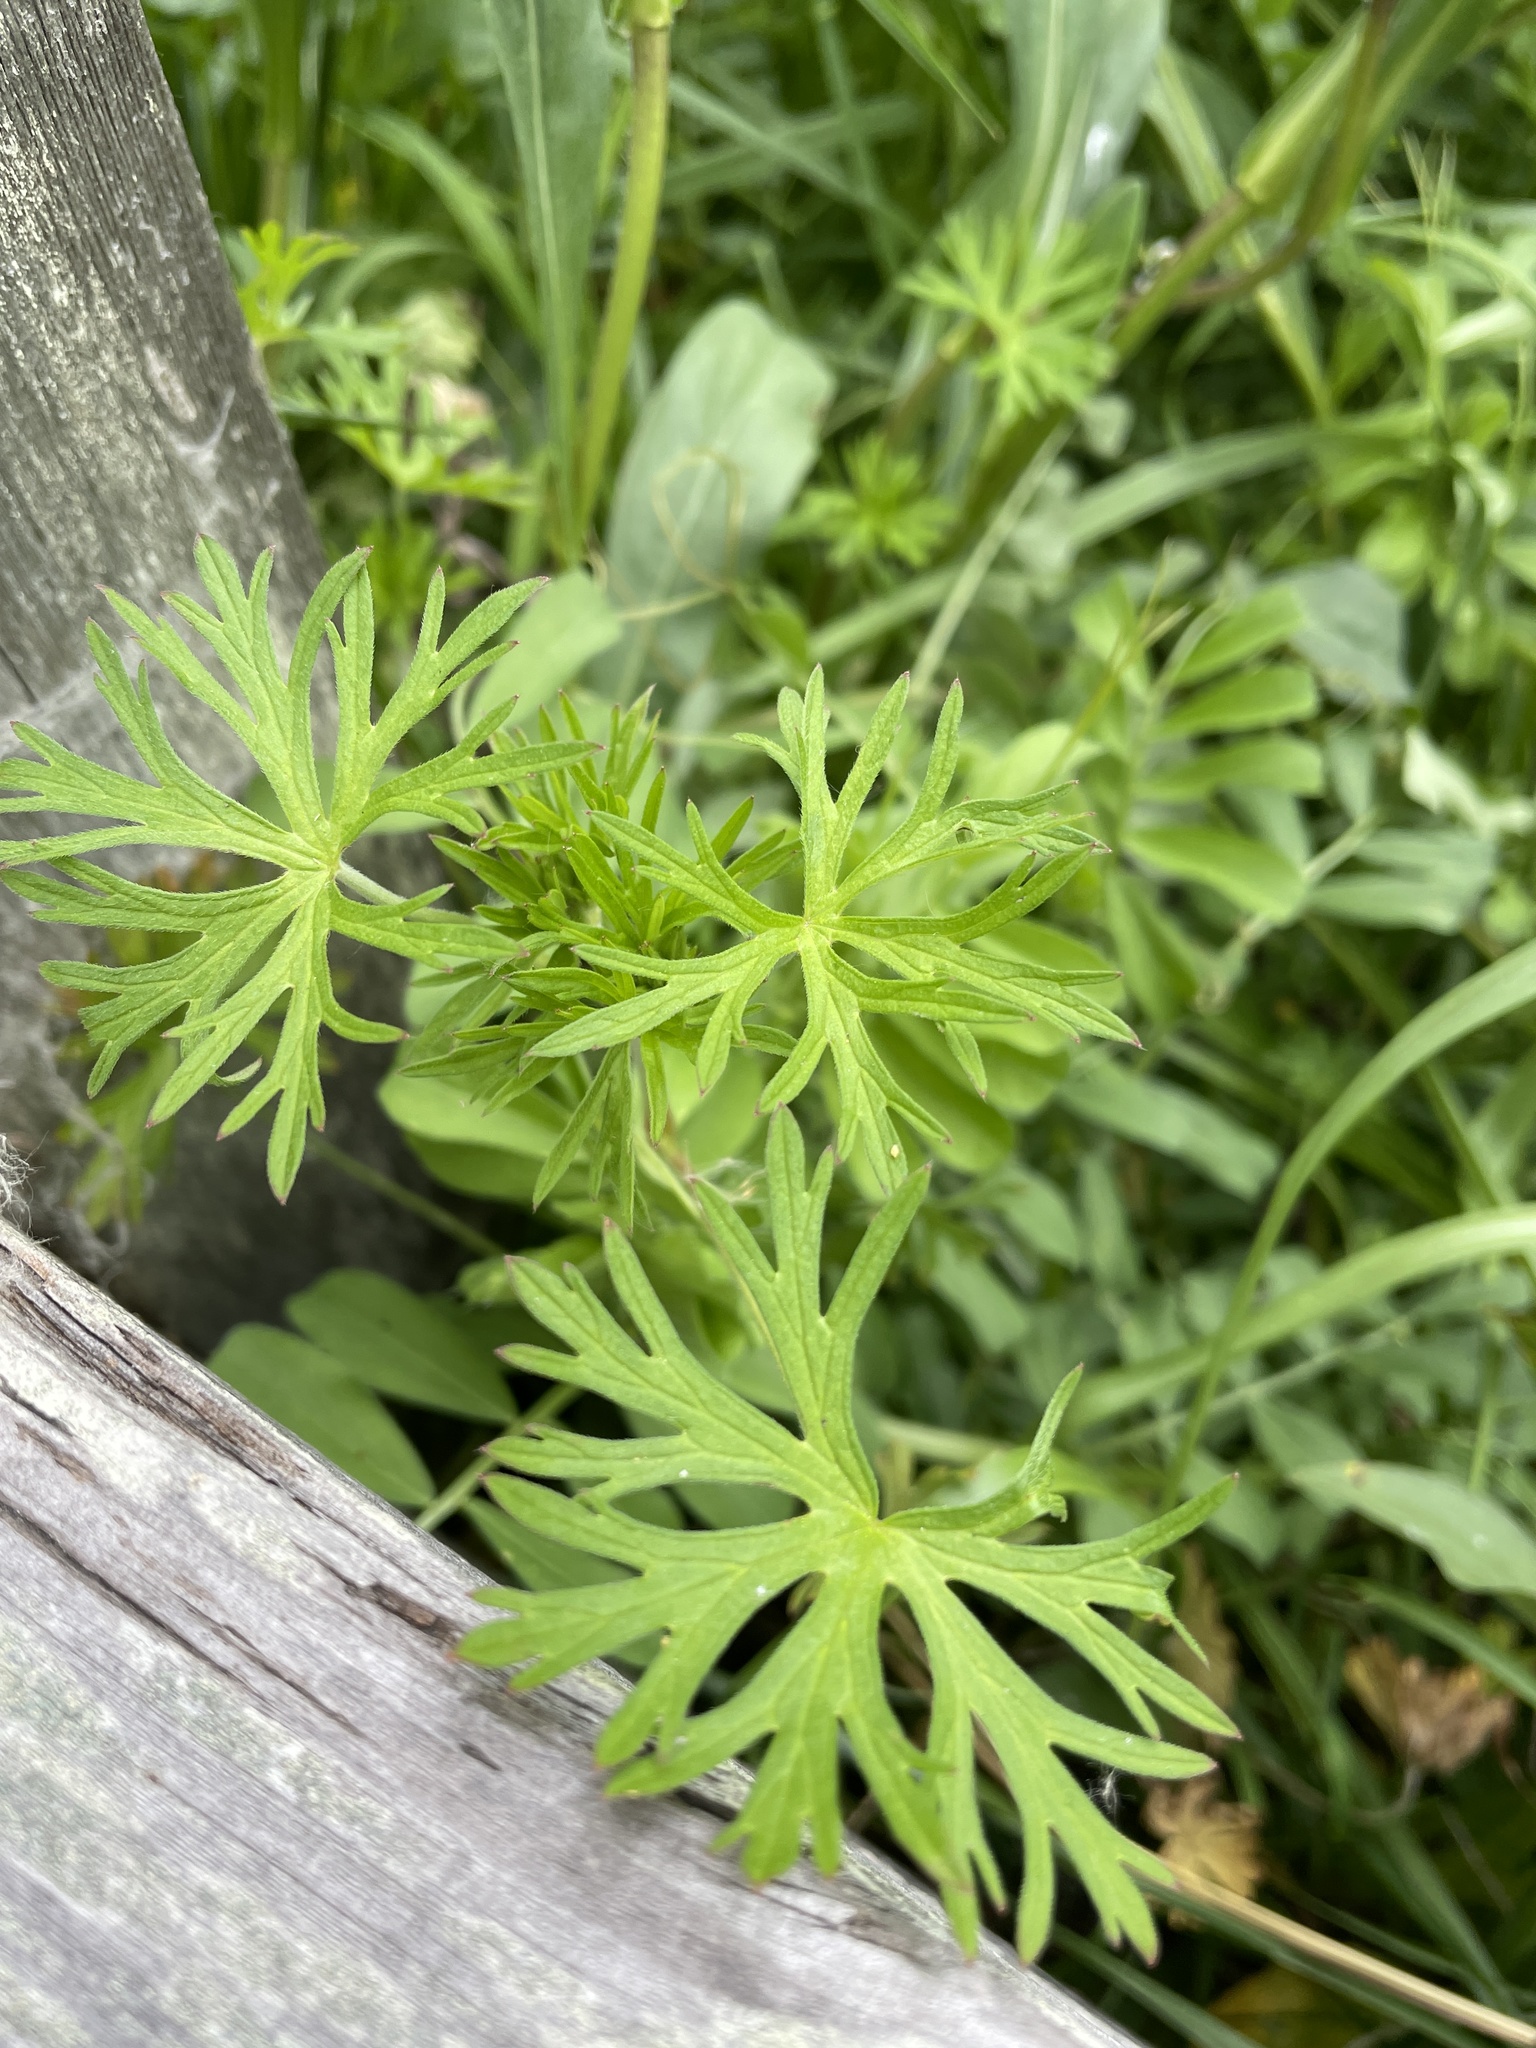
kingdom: Plantae
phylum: Tracheophyta
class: Magnoliopsida
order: Geraniales
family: Geraniaceae
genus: Geranium
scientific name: Geranium
